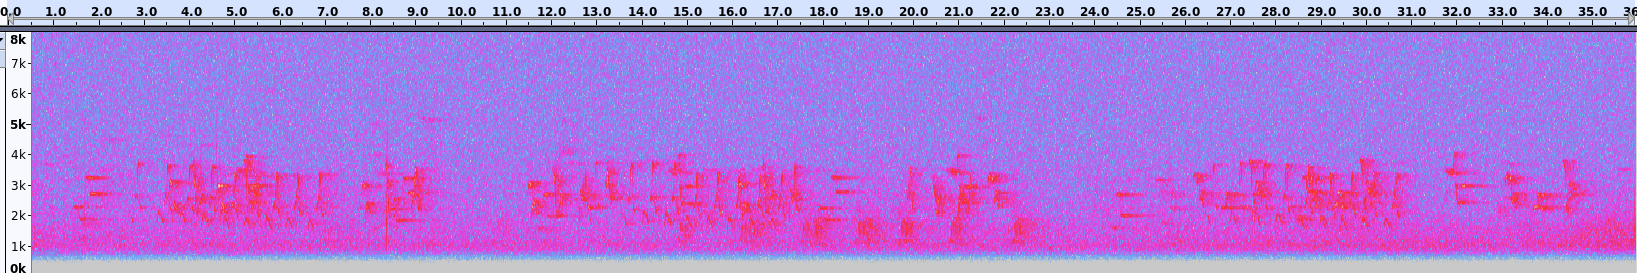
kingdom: Animalia
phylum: Chordata
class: Aves
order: Piciformes
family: Picidae
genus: Dryocopus
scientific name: Dryocopus pileatus
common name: Pileated woodpecker
